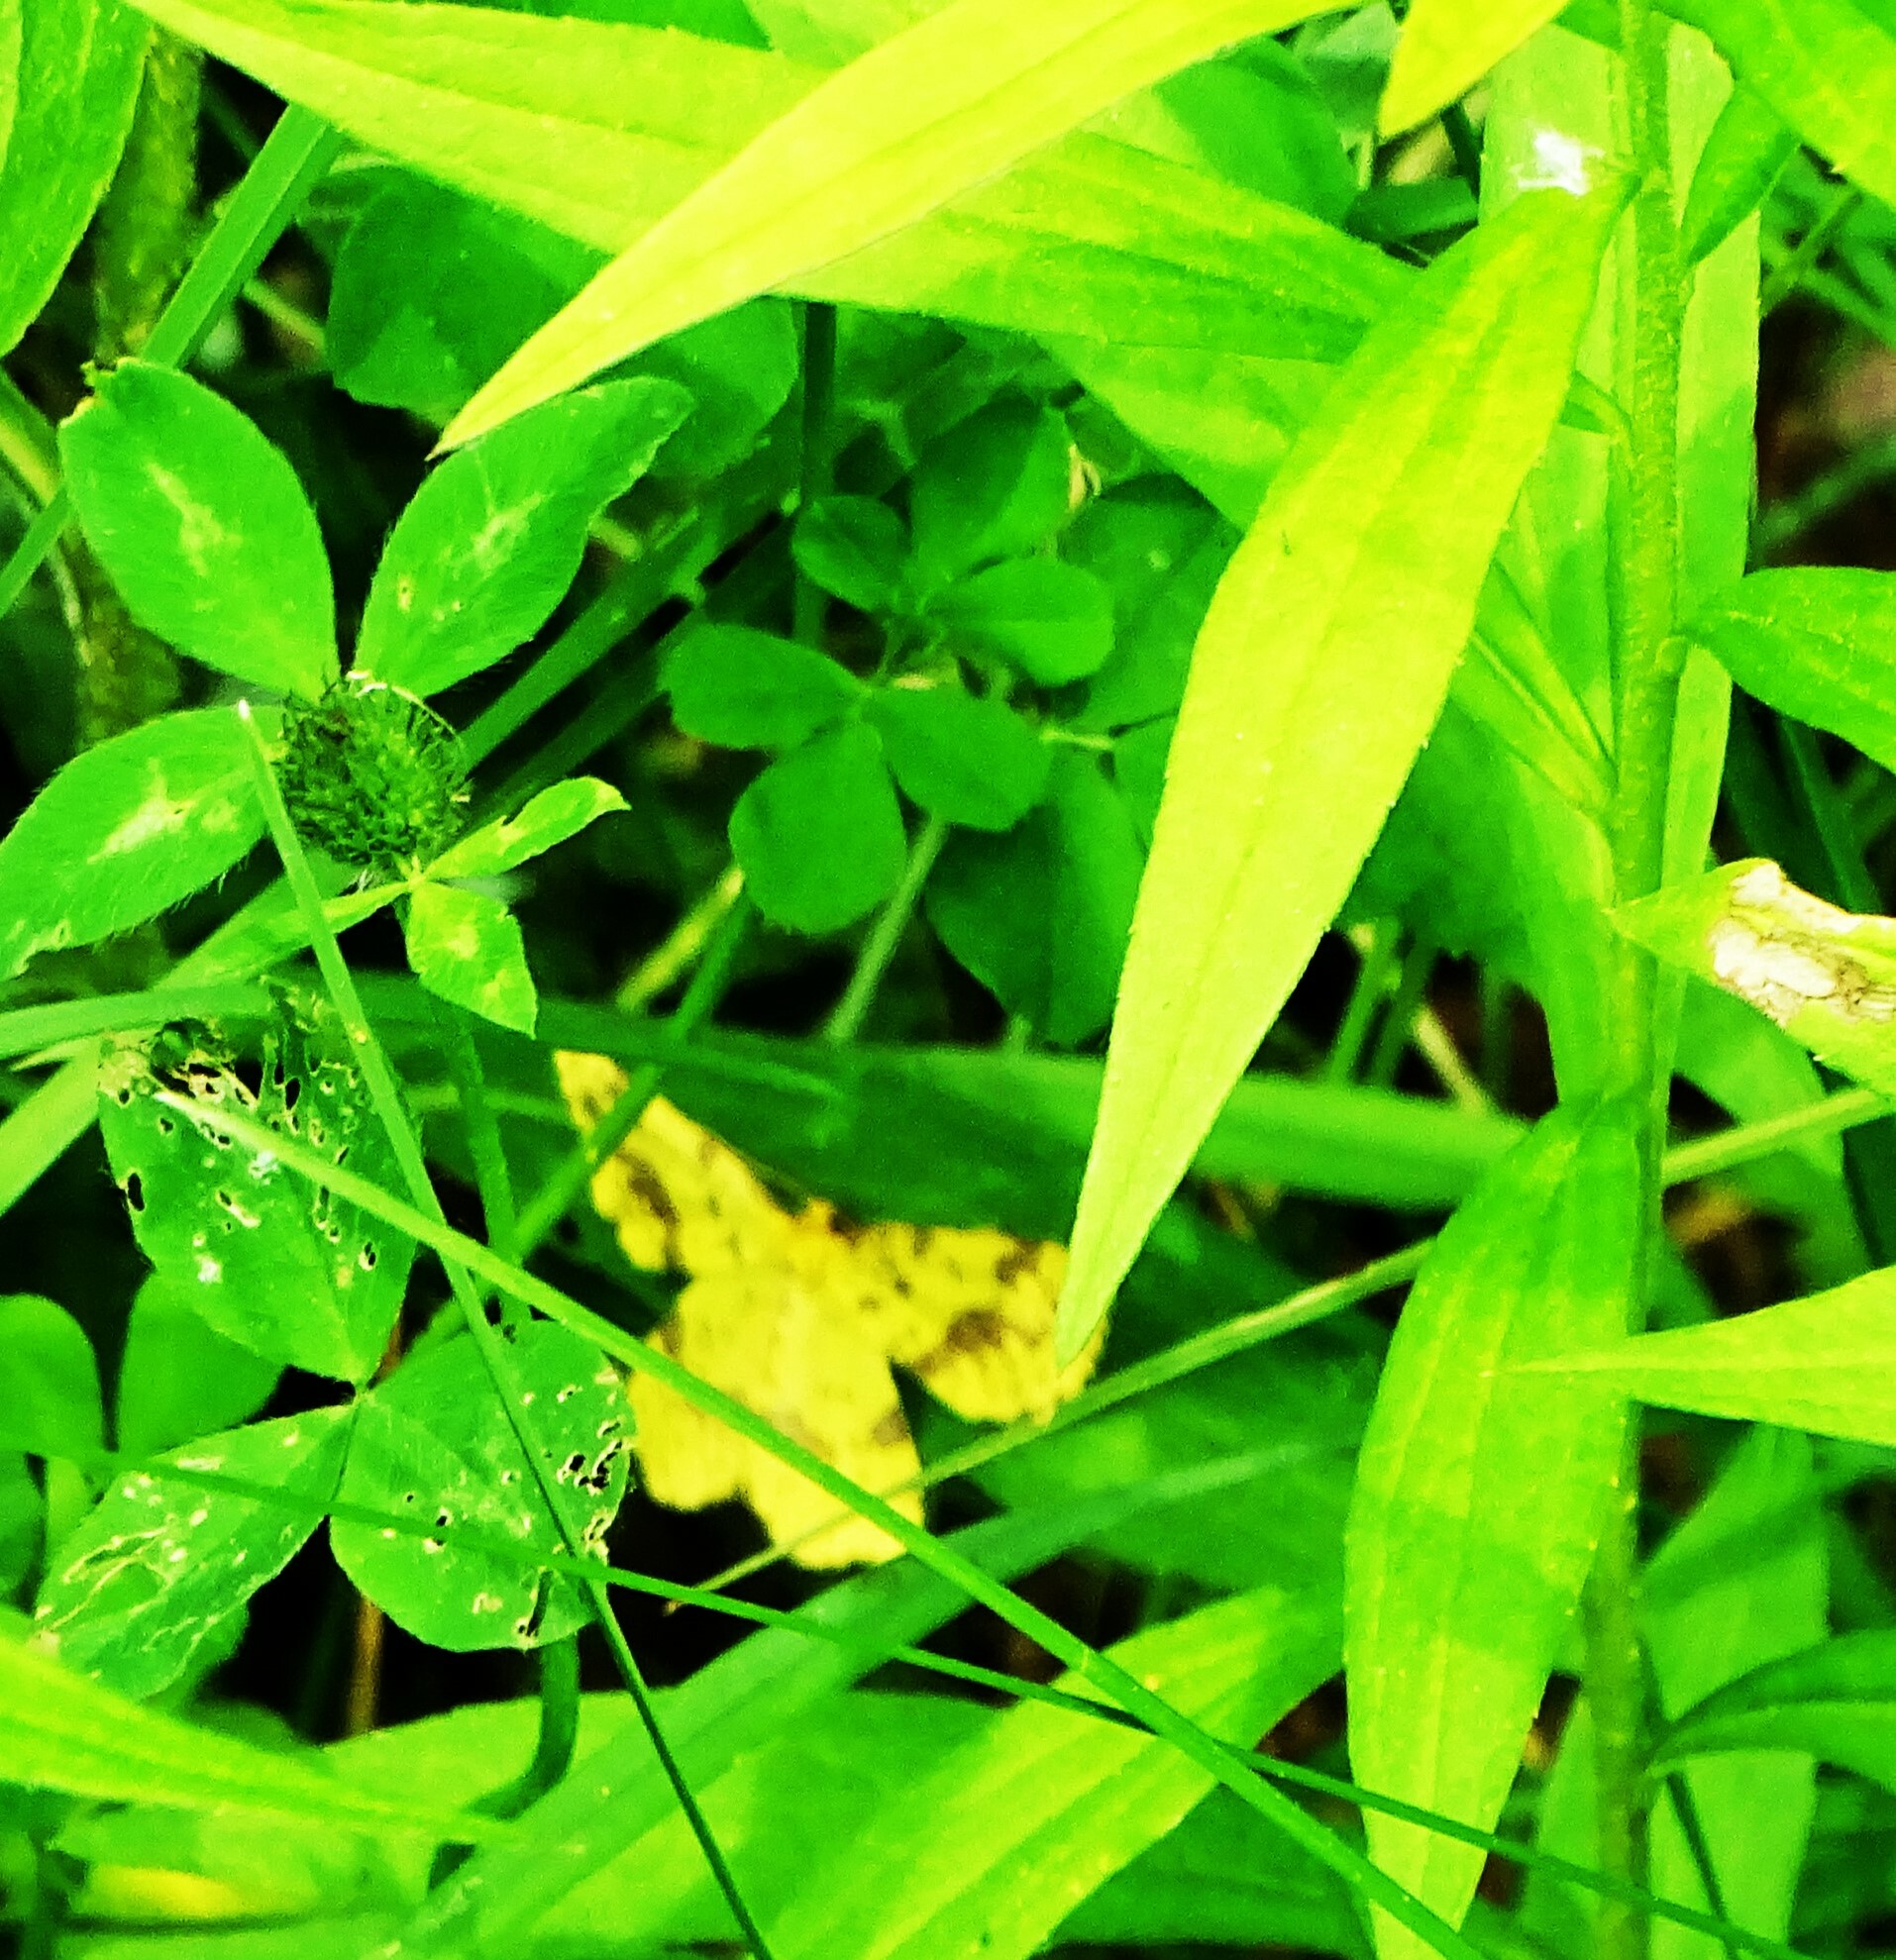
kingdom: Animalia
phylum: Arthropoda
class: Insecta
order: Lepidoptera
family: Geometridae
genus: Xanthotype
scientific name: Xanthotype
